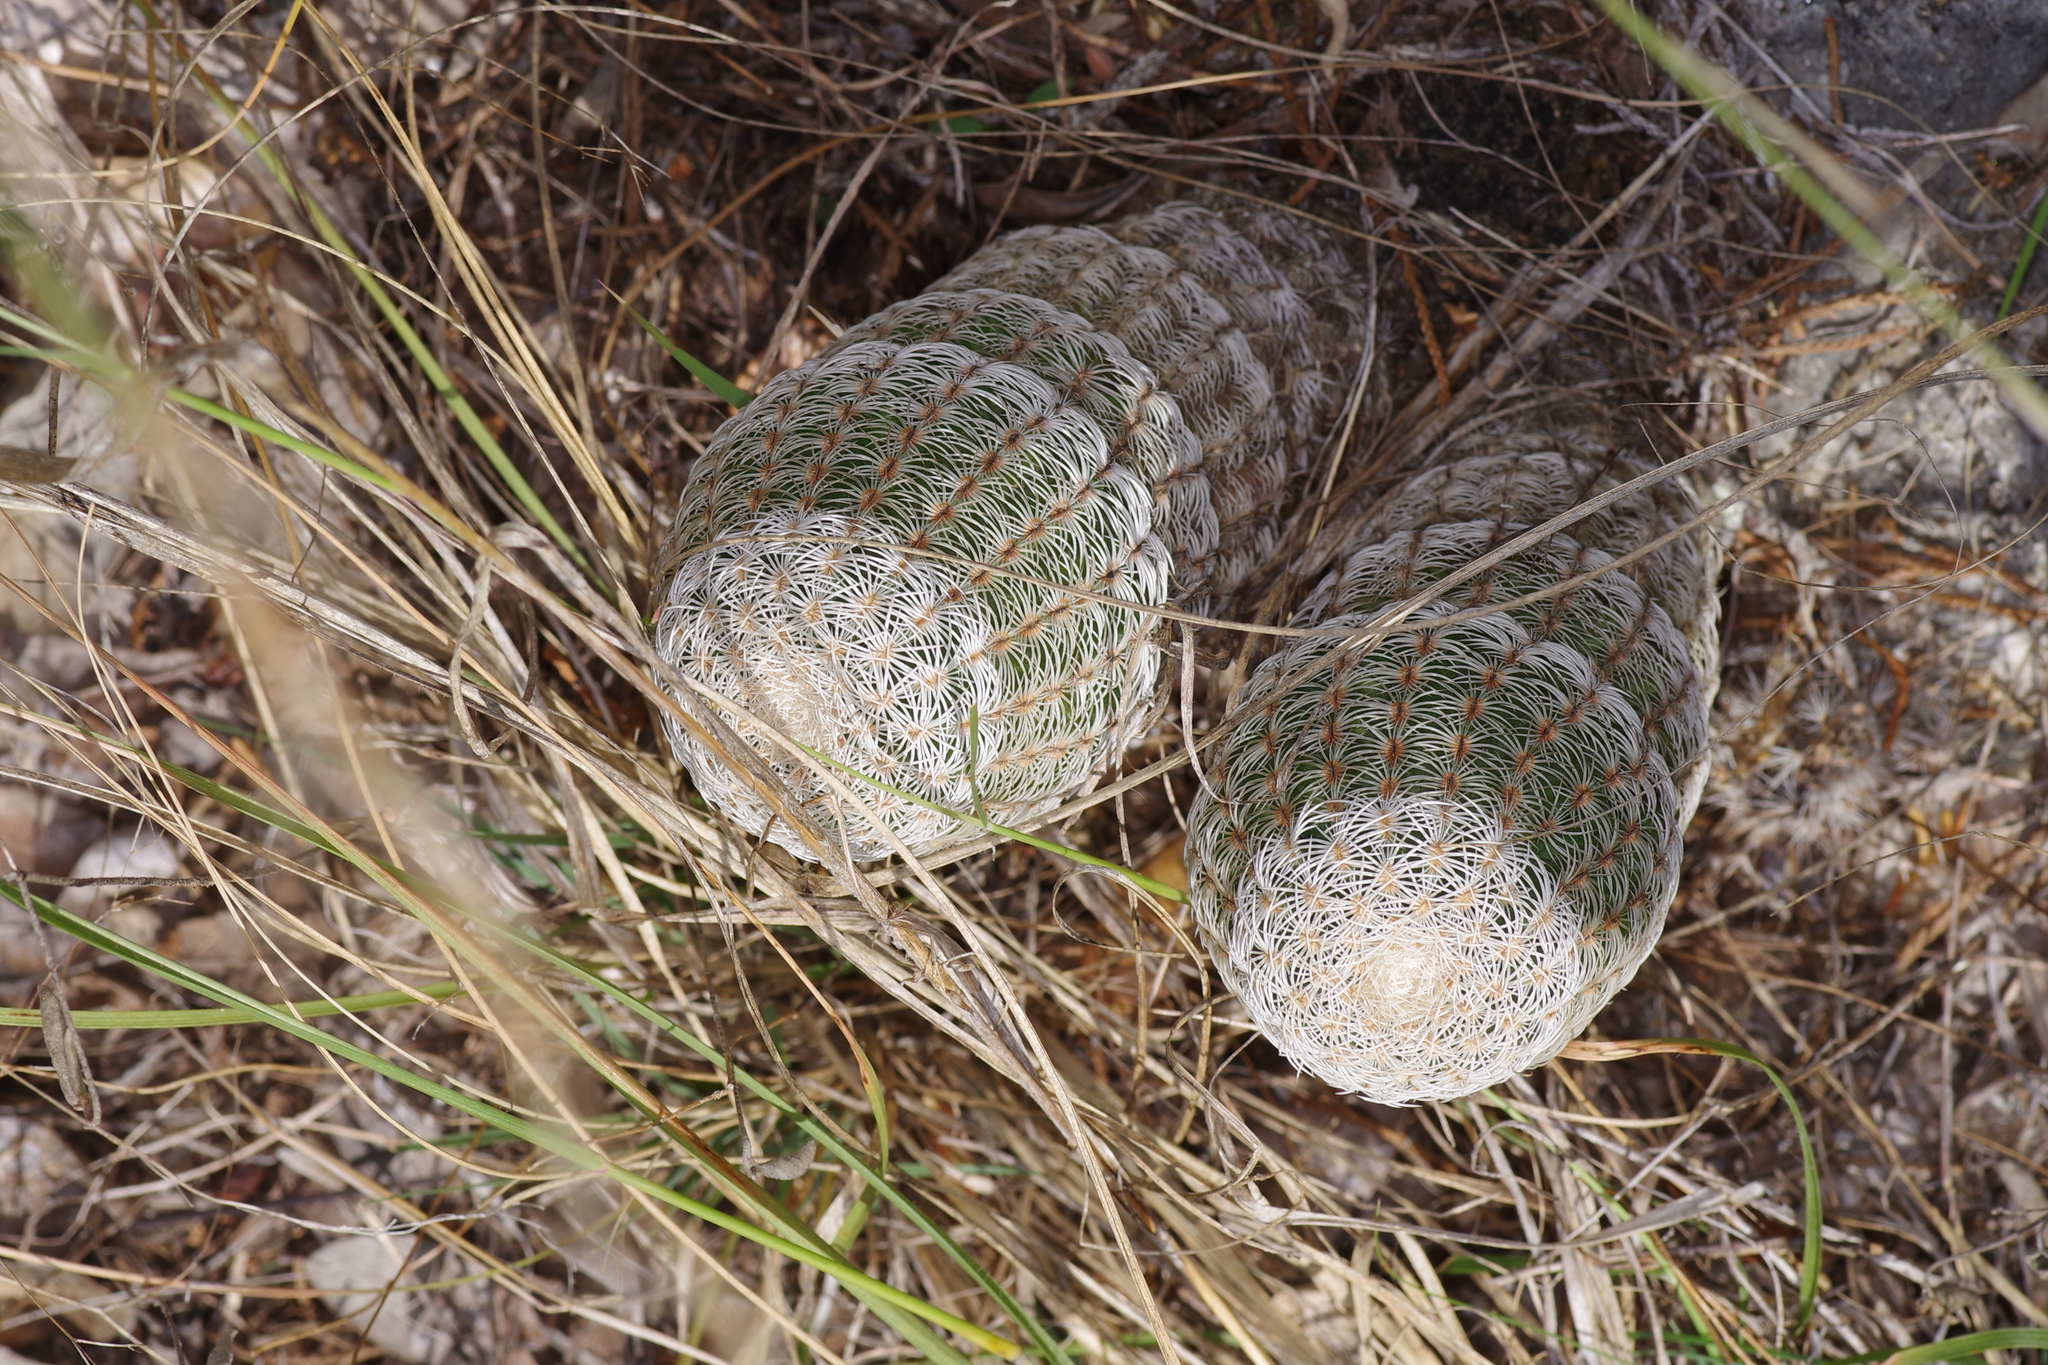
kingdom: Plantae
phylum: Tracheophyta
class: Magnoliopsida
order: Caryophyllales
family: Cactaceae
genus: Echinocereus
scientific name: Echinocereus reichenbachii
